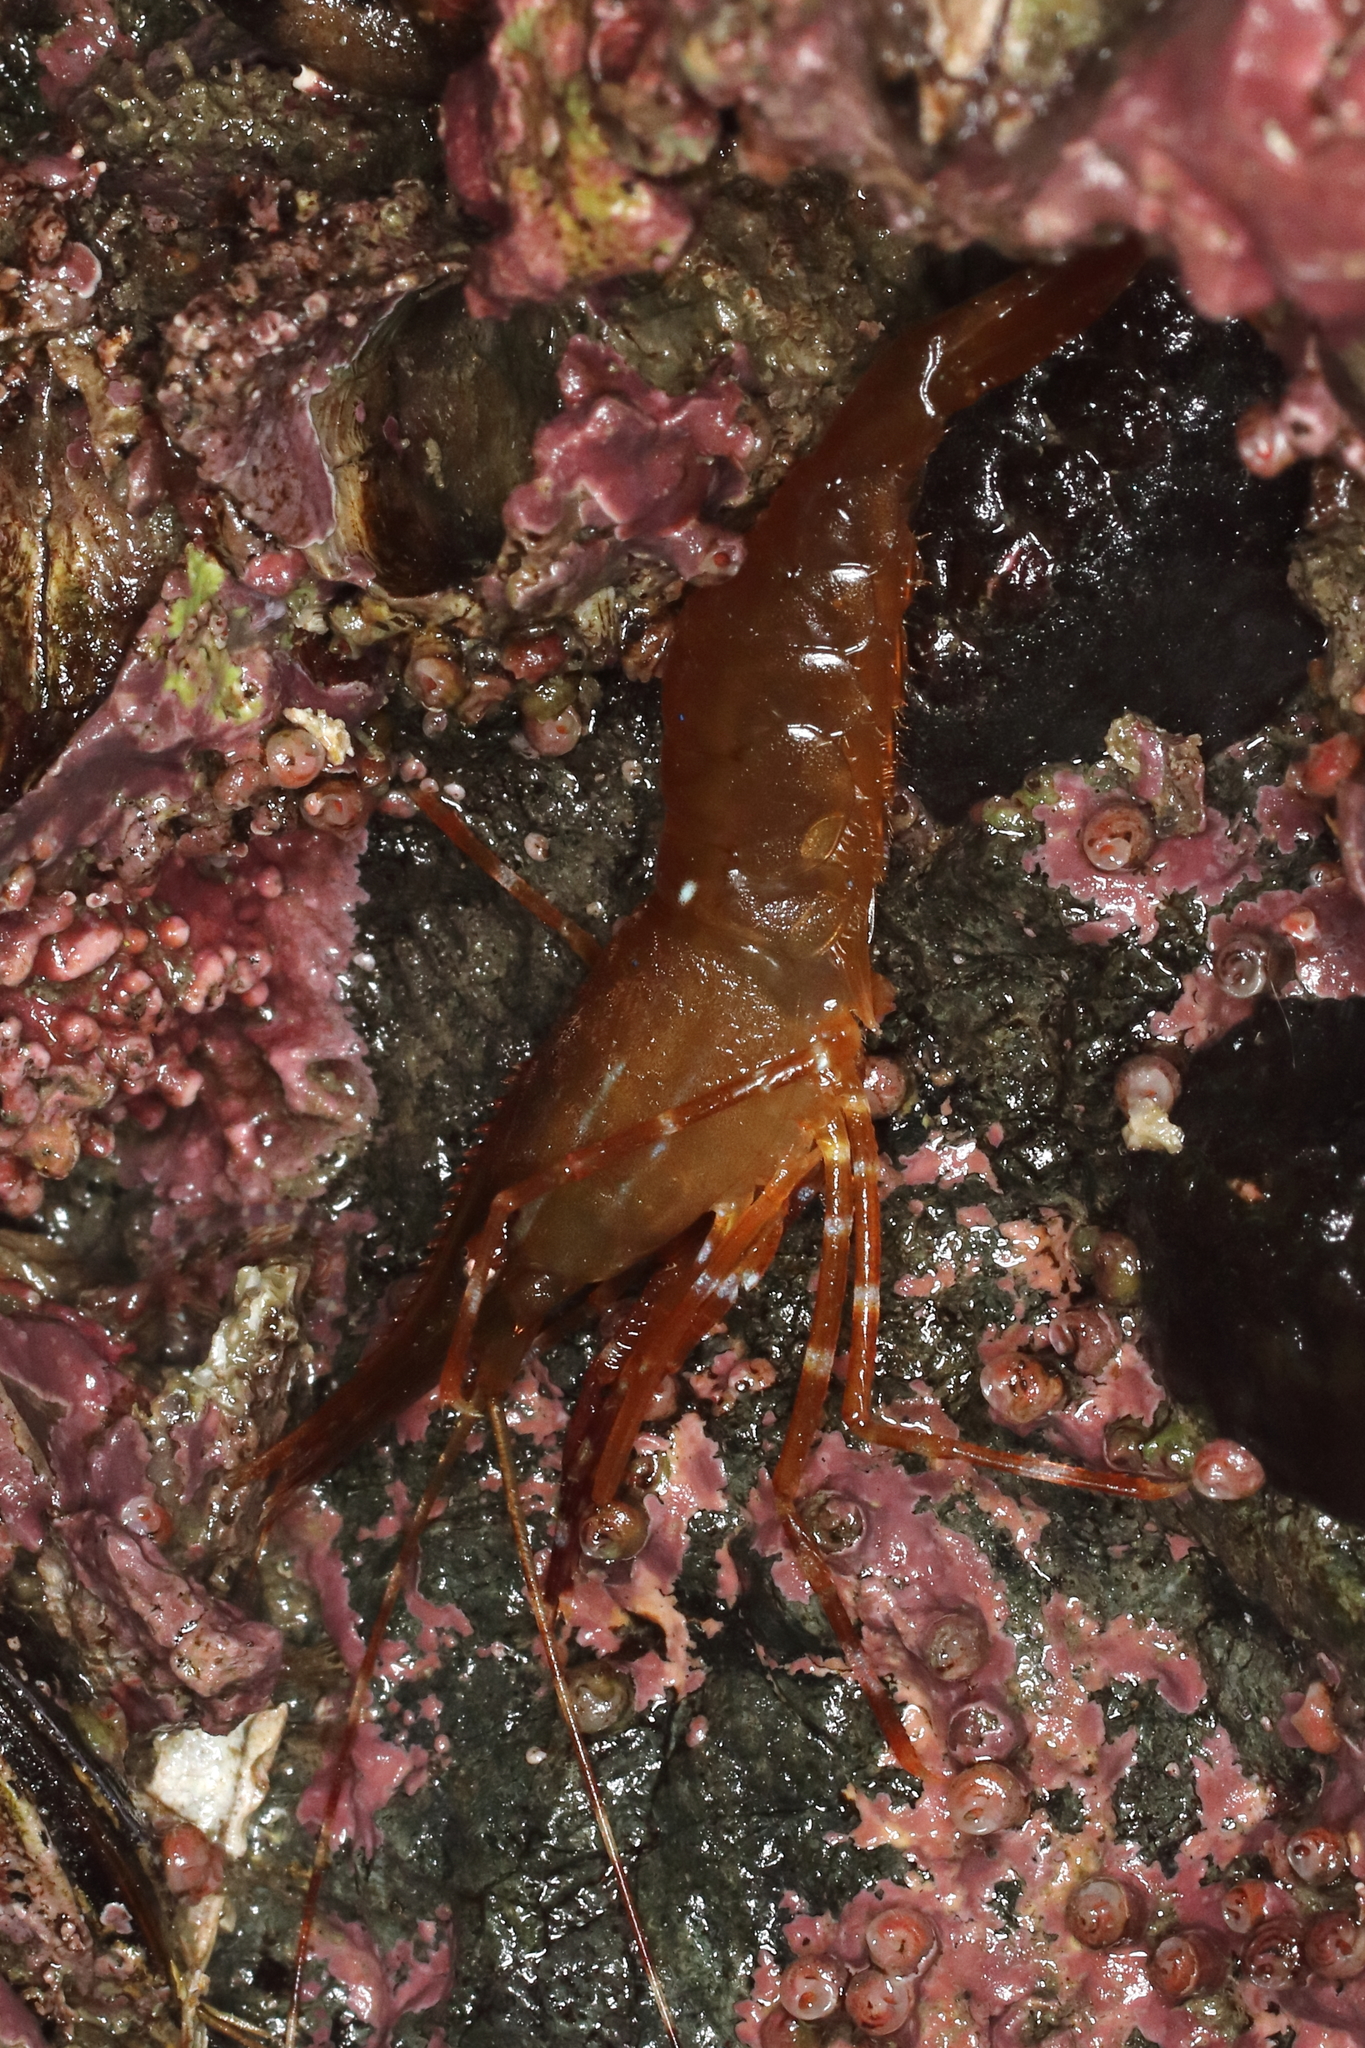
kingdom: Animalia
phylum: Arthropoda
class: Malacostraca
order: Decapoda
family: Pandalidae
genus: Pandalus
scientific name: Pandalus platyceros
